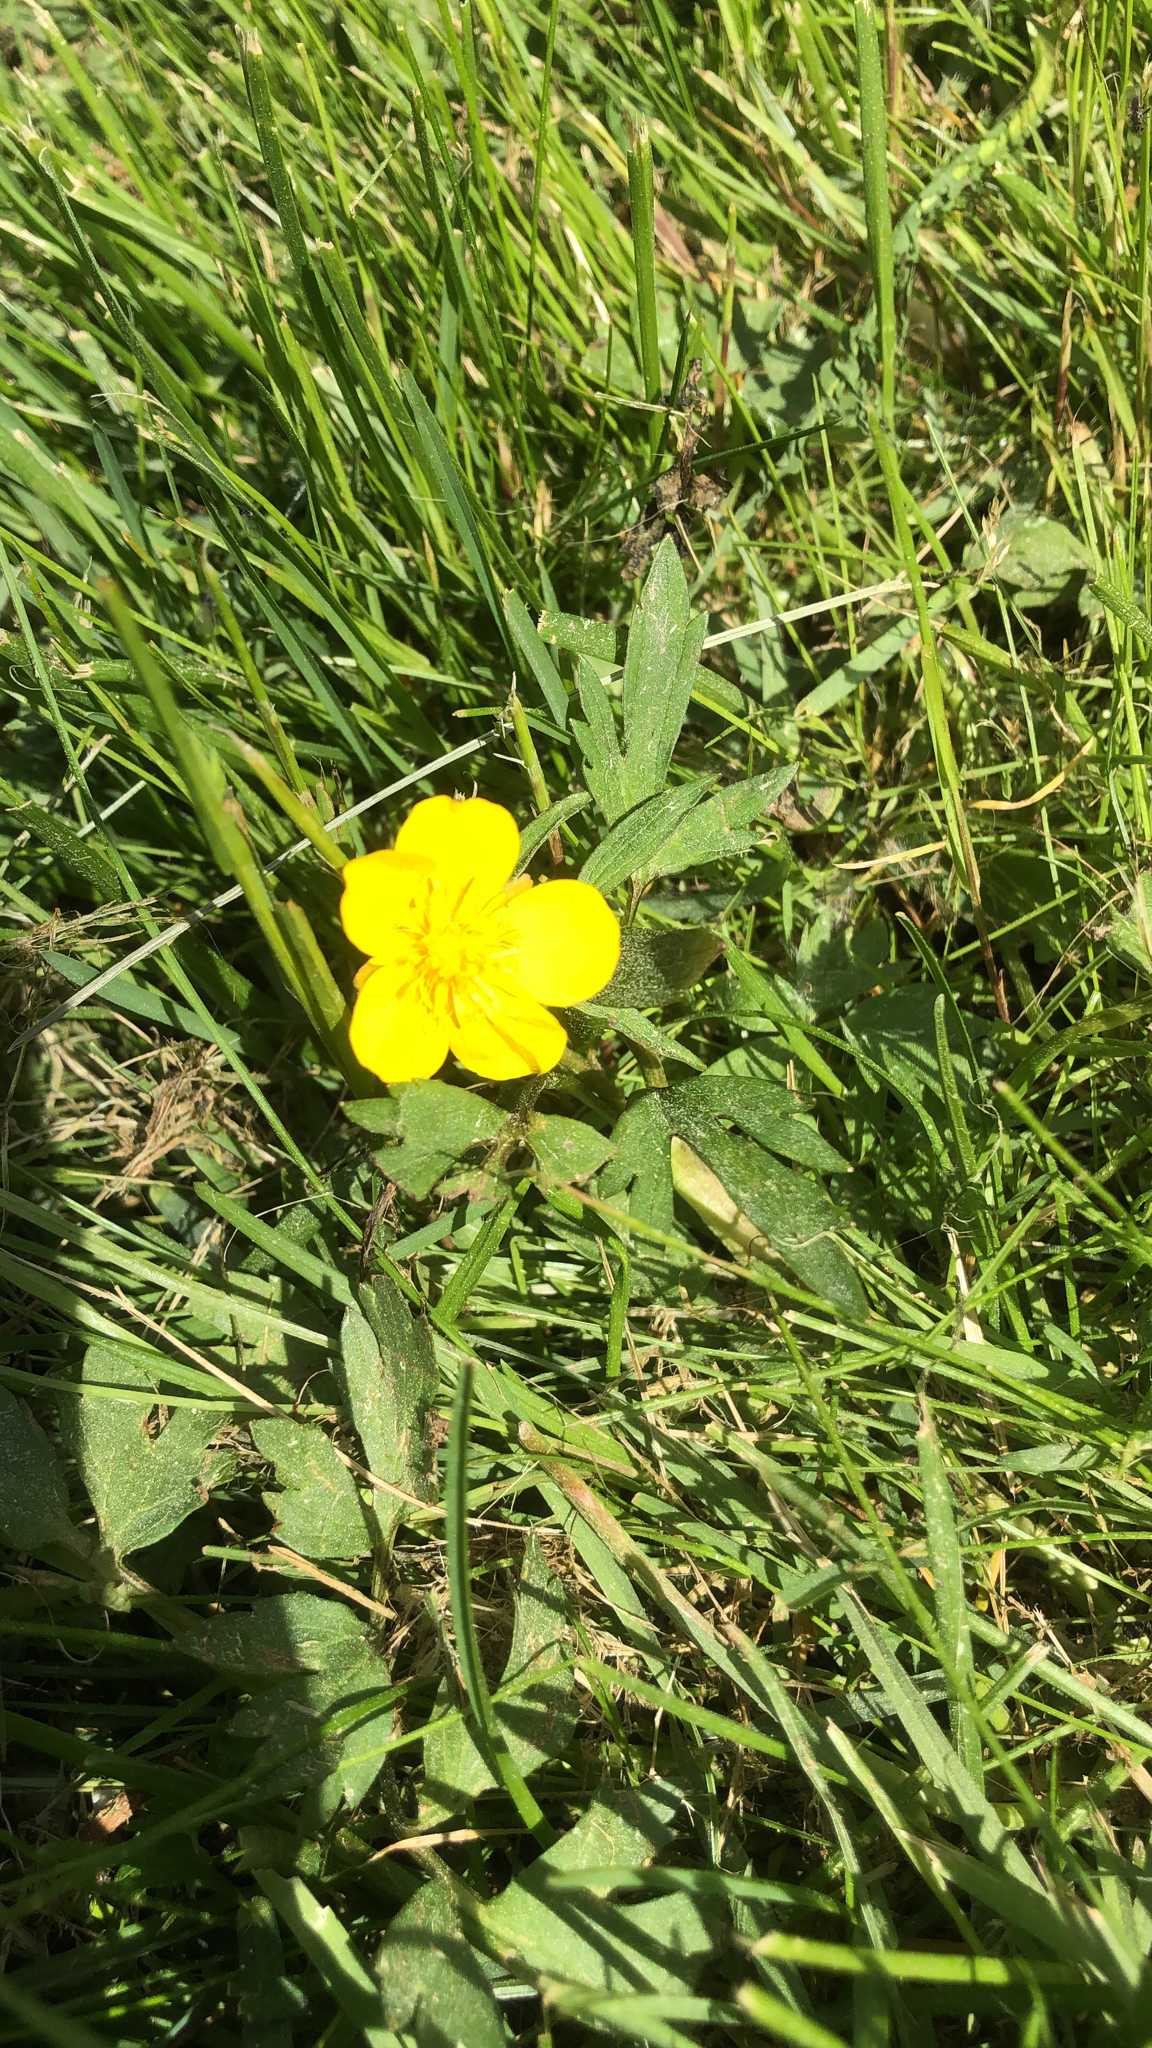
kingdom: Plantae
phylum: Tracheophyta
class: Magnoliopsida
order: Ranunculales
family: Ranunculaceae
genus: Ranunculus
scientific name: Ranunculus repens
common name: Creeping buttercup
